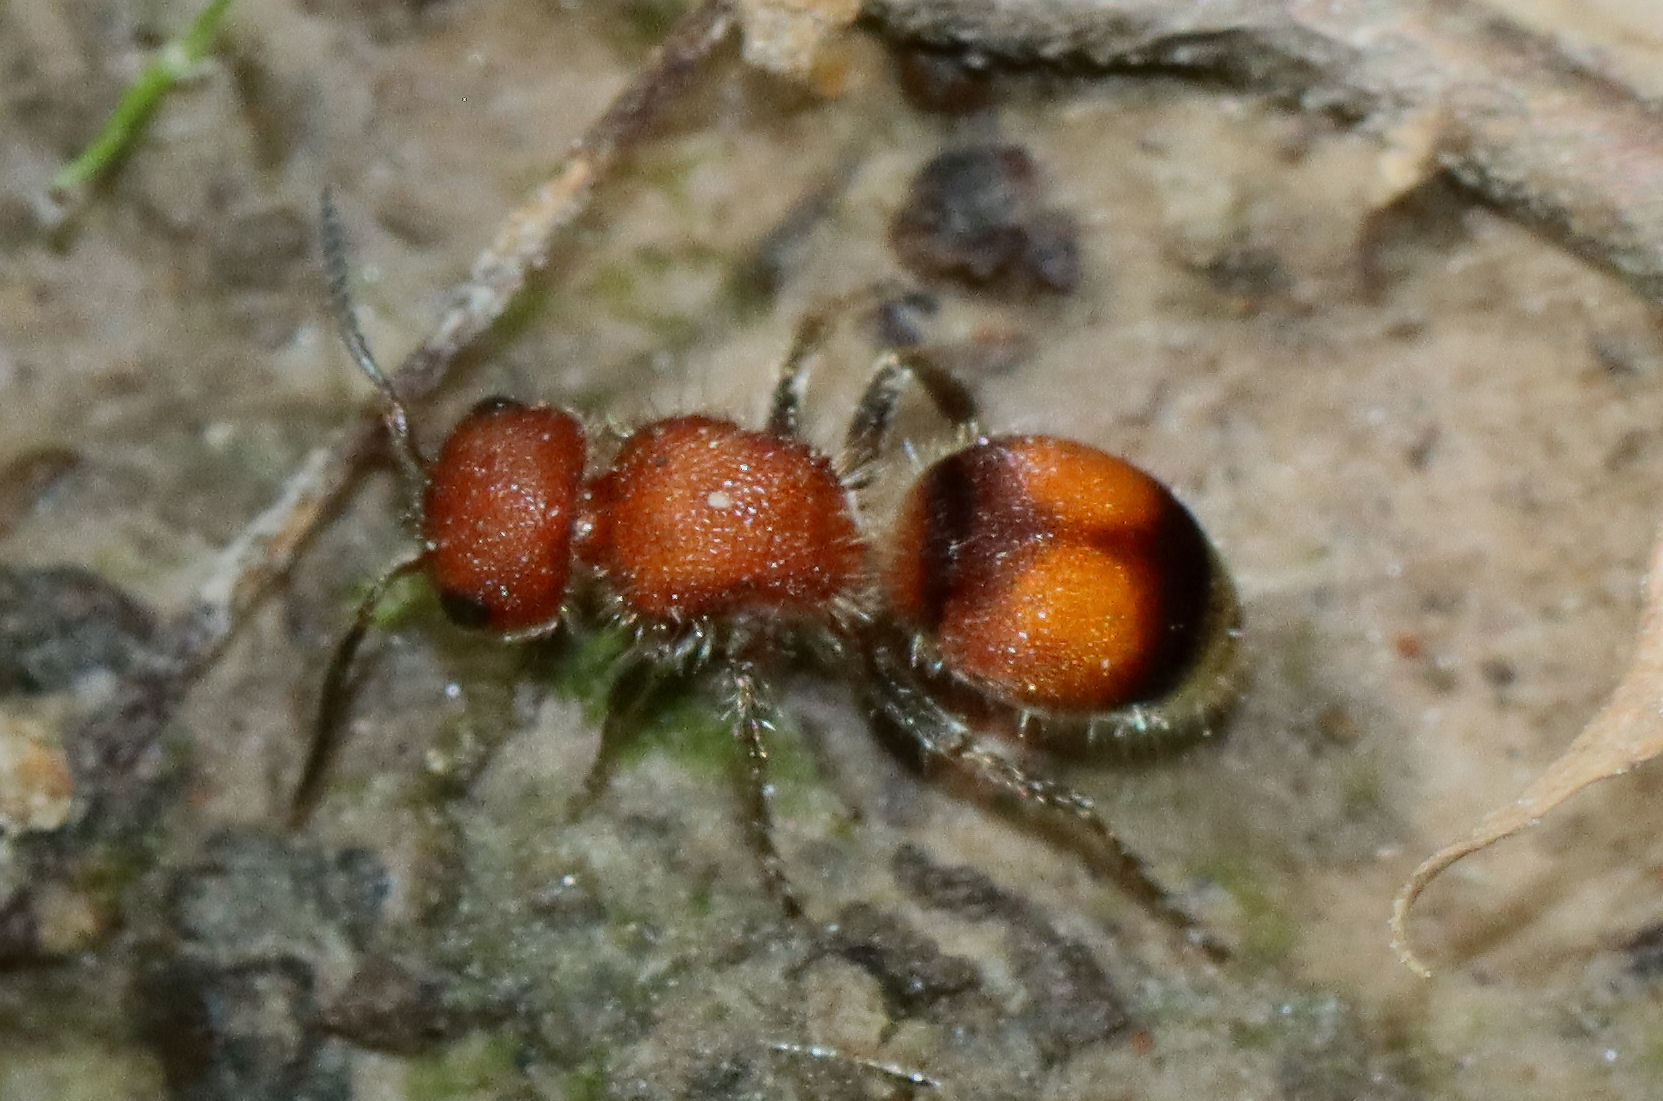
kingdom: Animalia
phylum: Arthropoda
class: Insecta
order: Hymenoptera
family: Mutillidae
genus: Pseudomethoca
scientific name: Pseudomethoca
